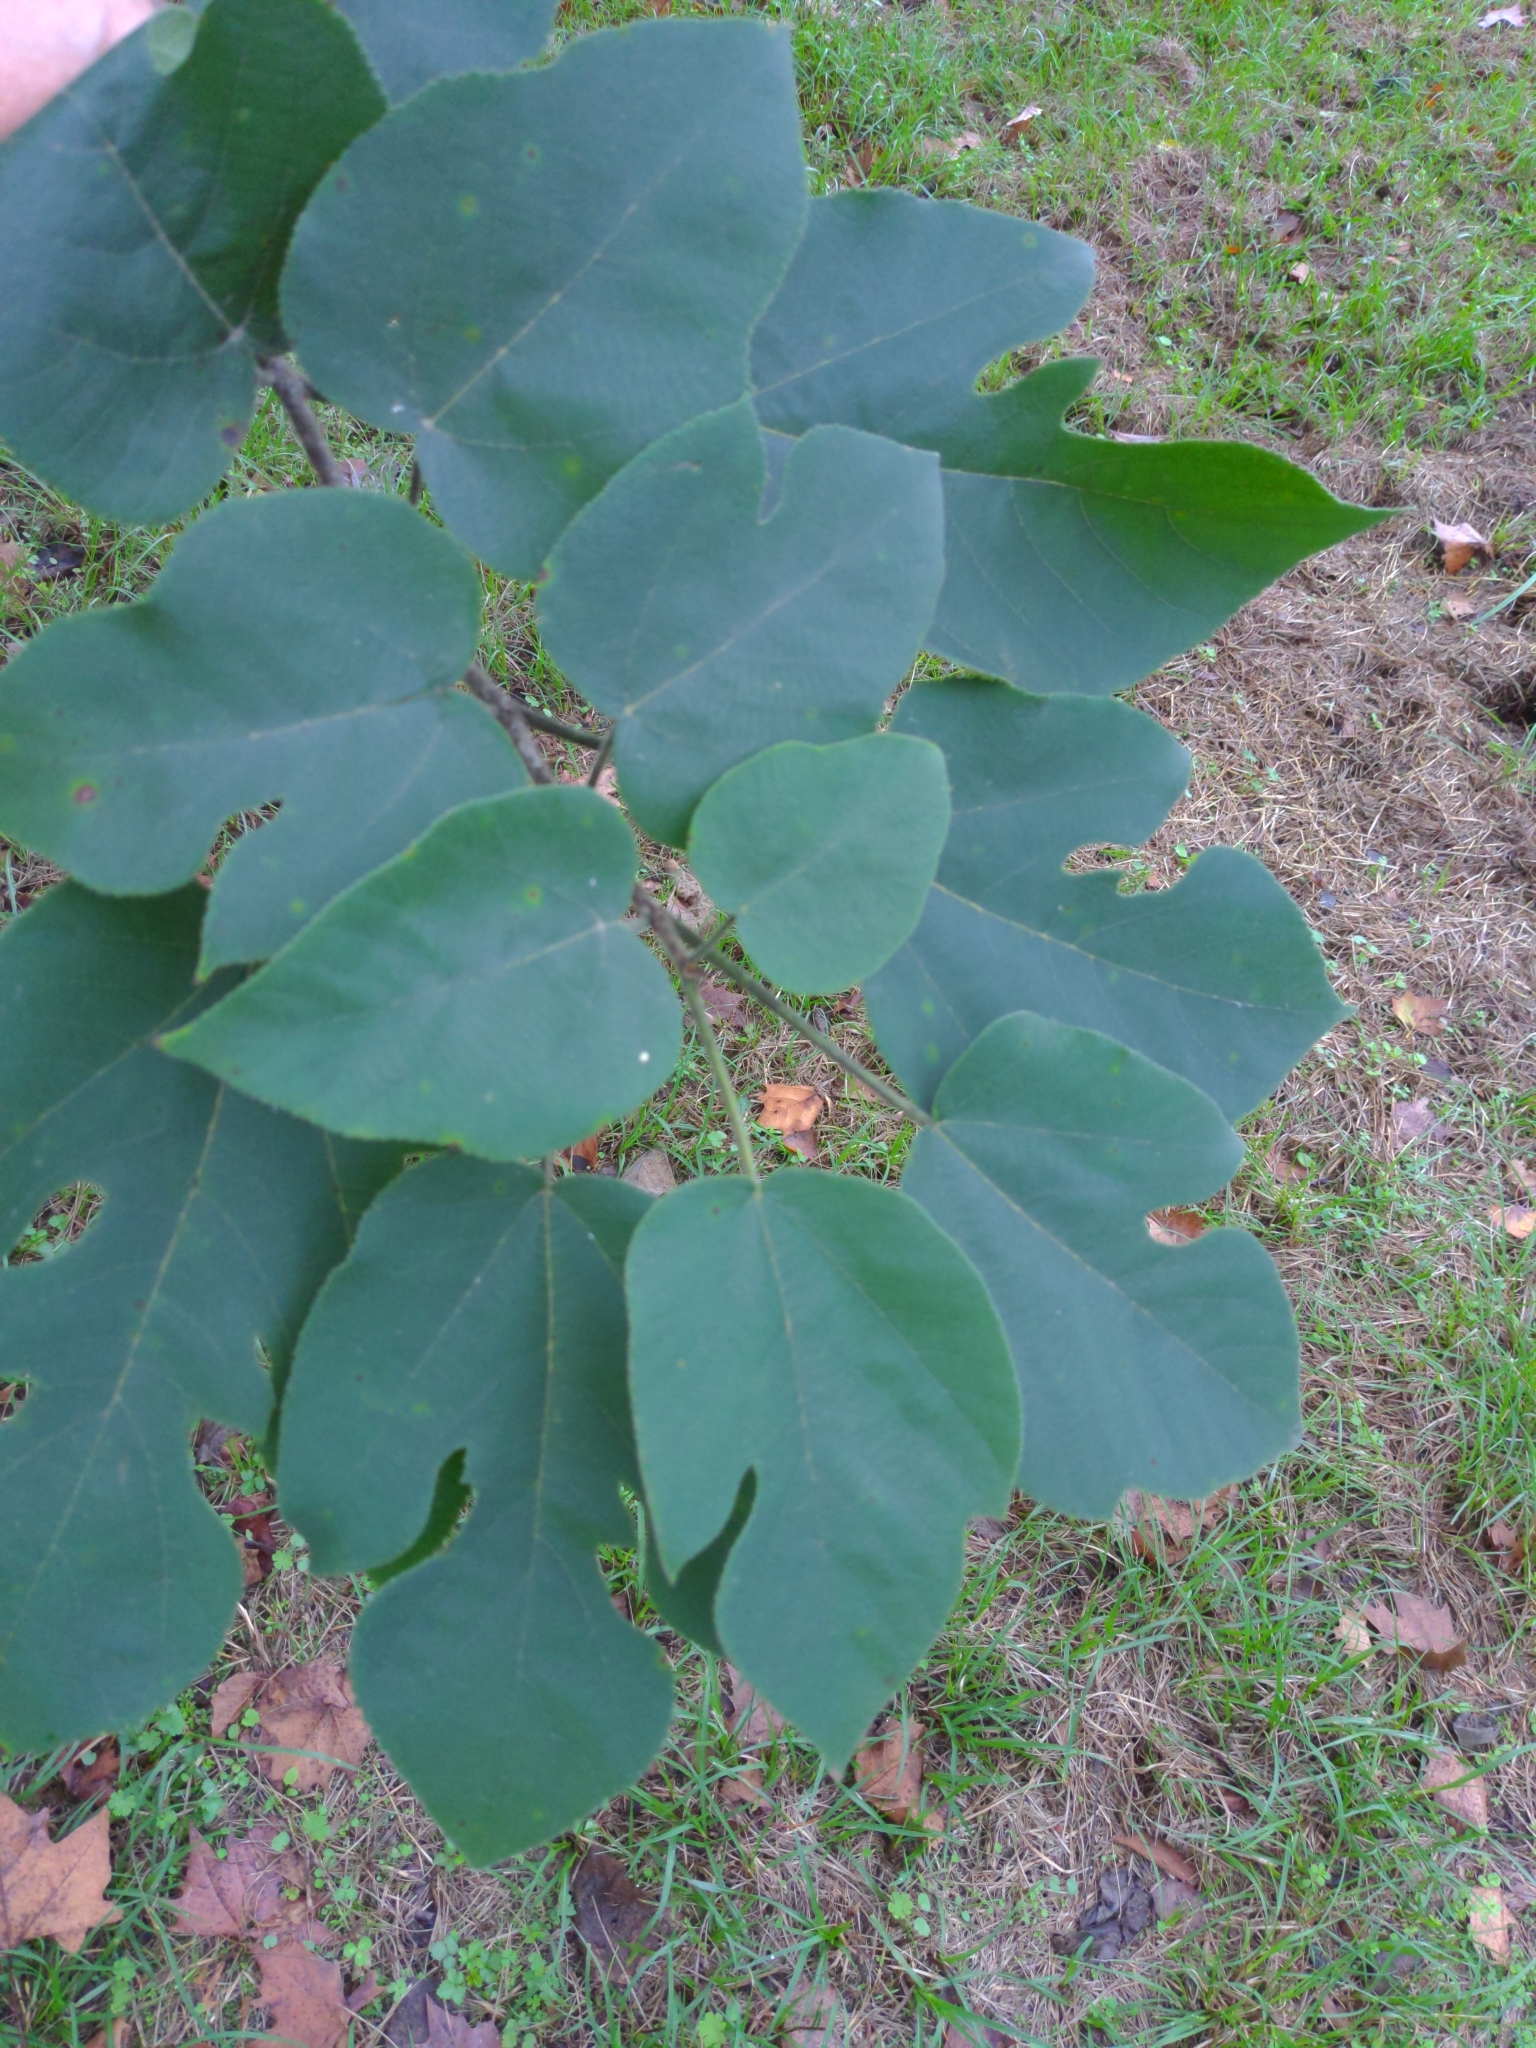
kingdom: Plantae
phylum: Tracheophyta
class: Magnoliopsida
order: Rosales
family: Moraceae
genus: Broussonetia
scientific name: Broussonetia papyrifera
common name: Paper mulberry
